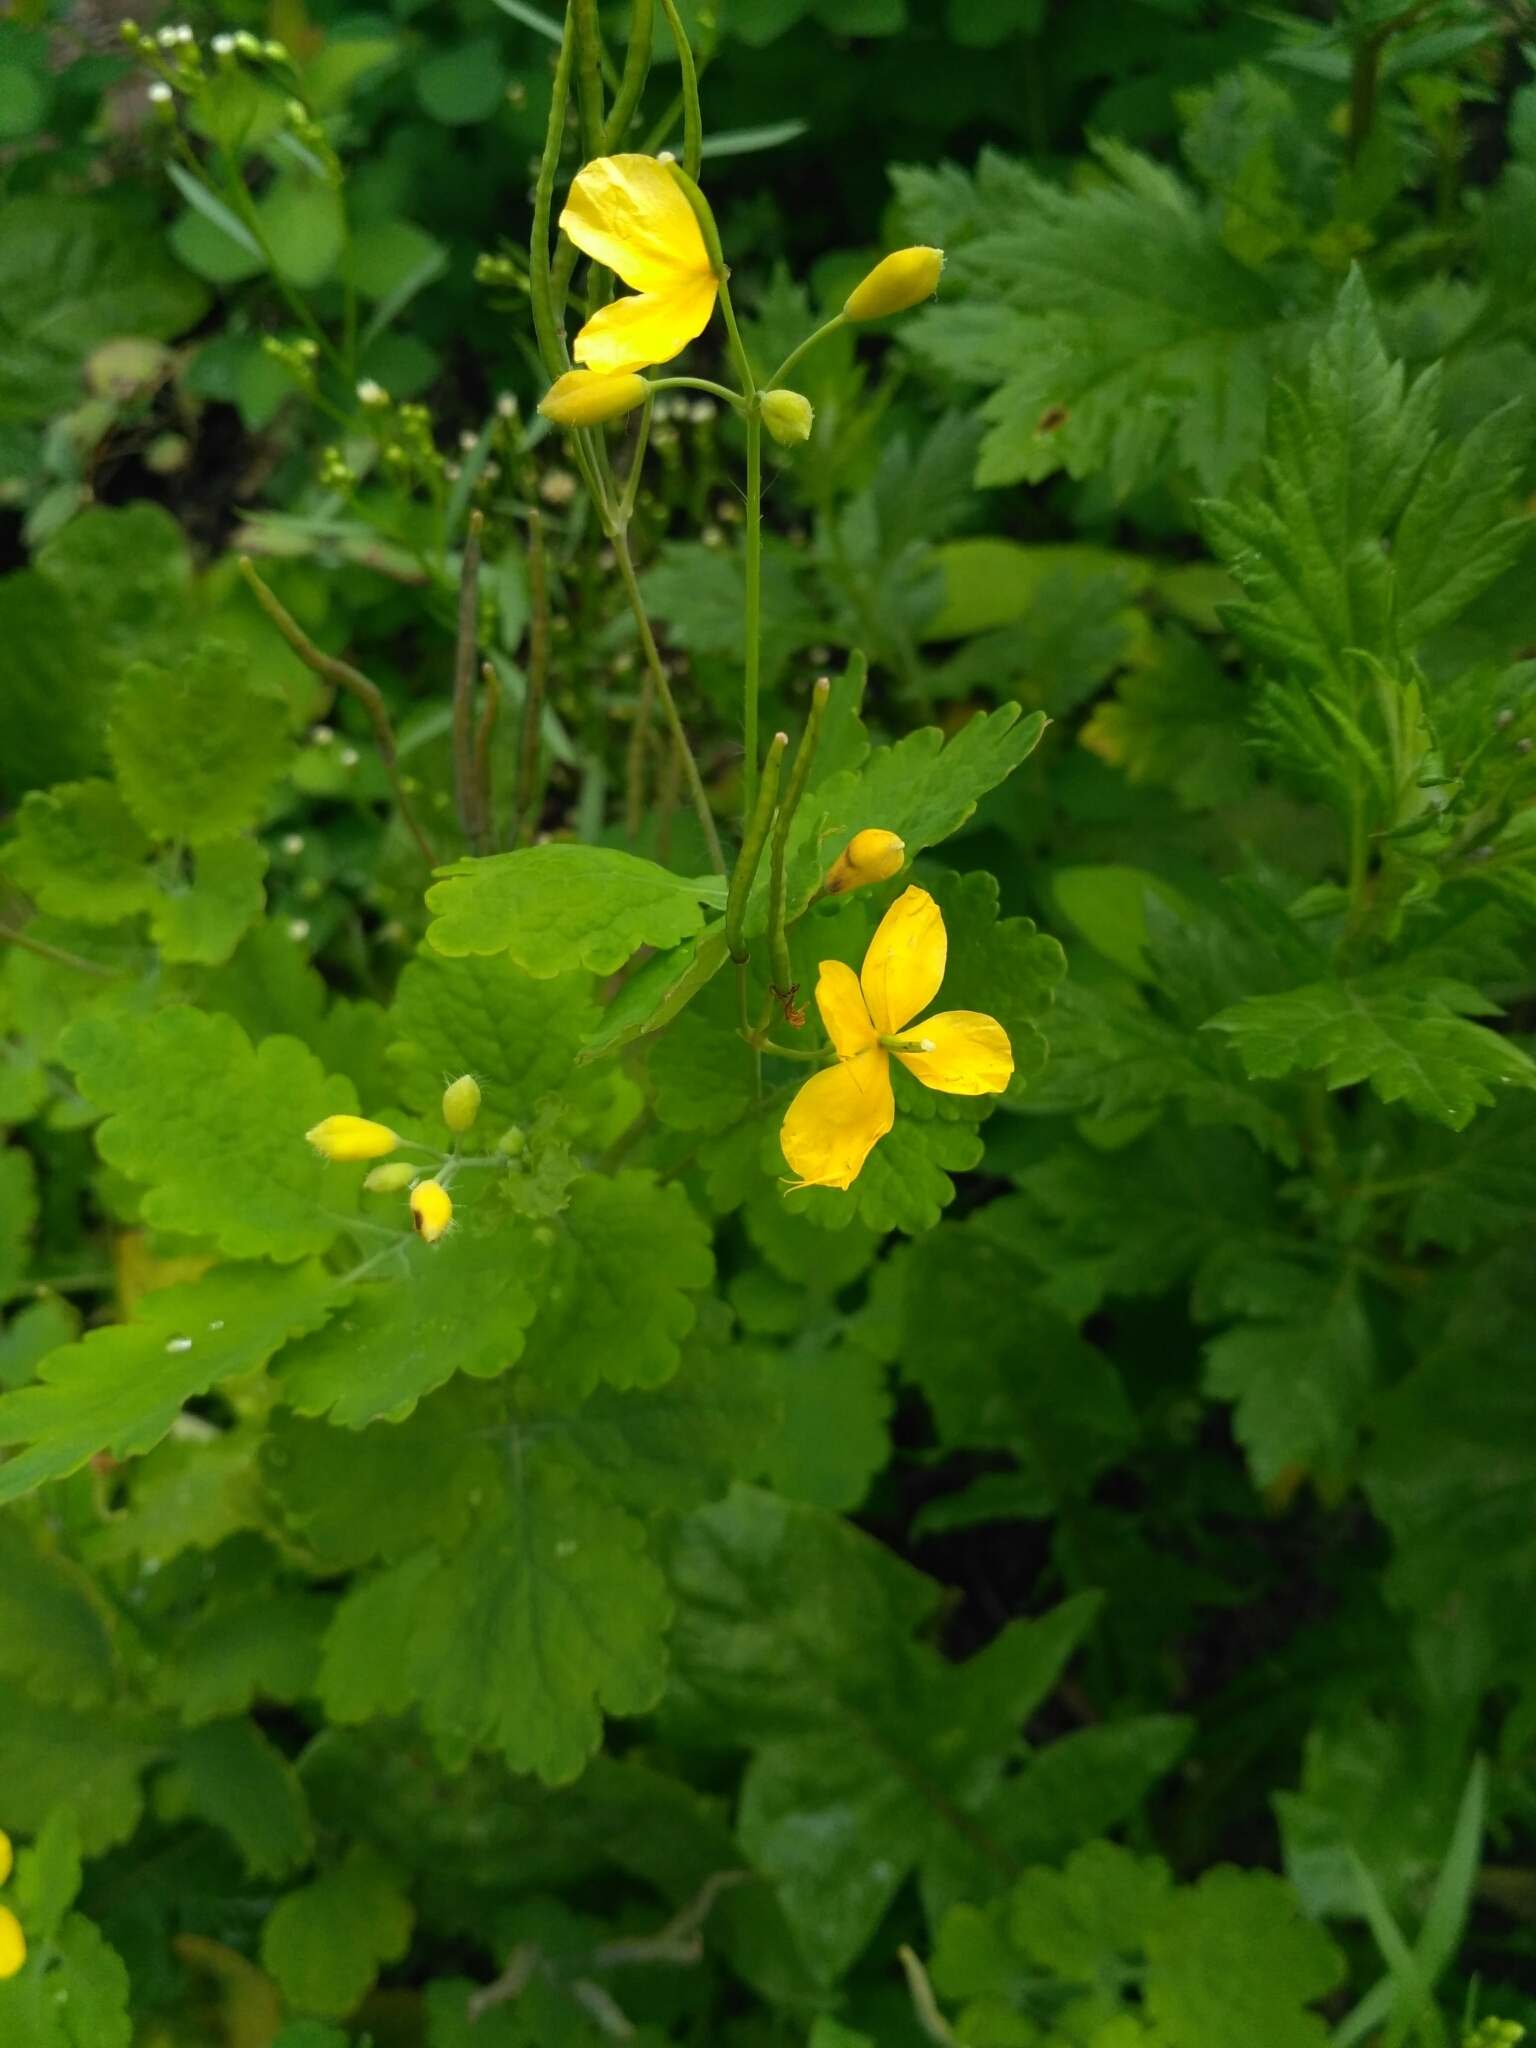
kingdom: Plantae
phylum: Tracheophyta
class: Magnoliopsida
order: Ranunculales
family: Papaveraceae
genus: Chelidonium
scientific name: Chelidonium majus
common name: Greater celandine
